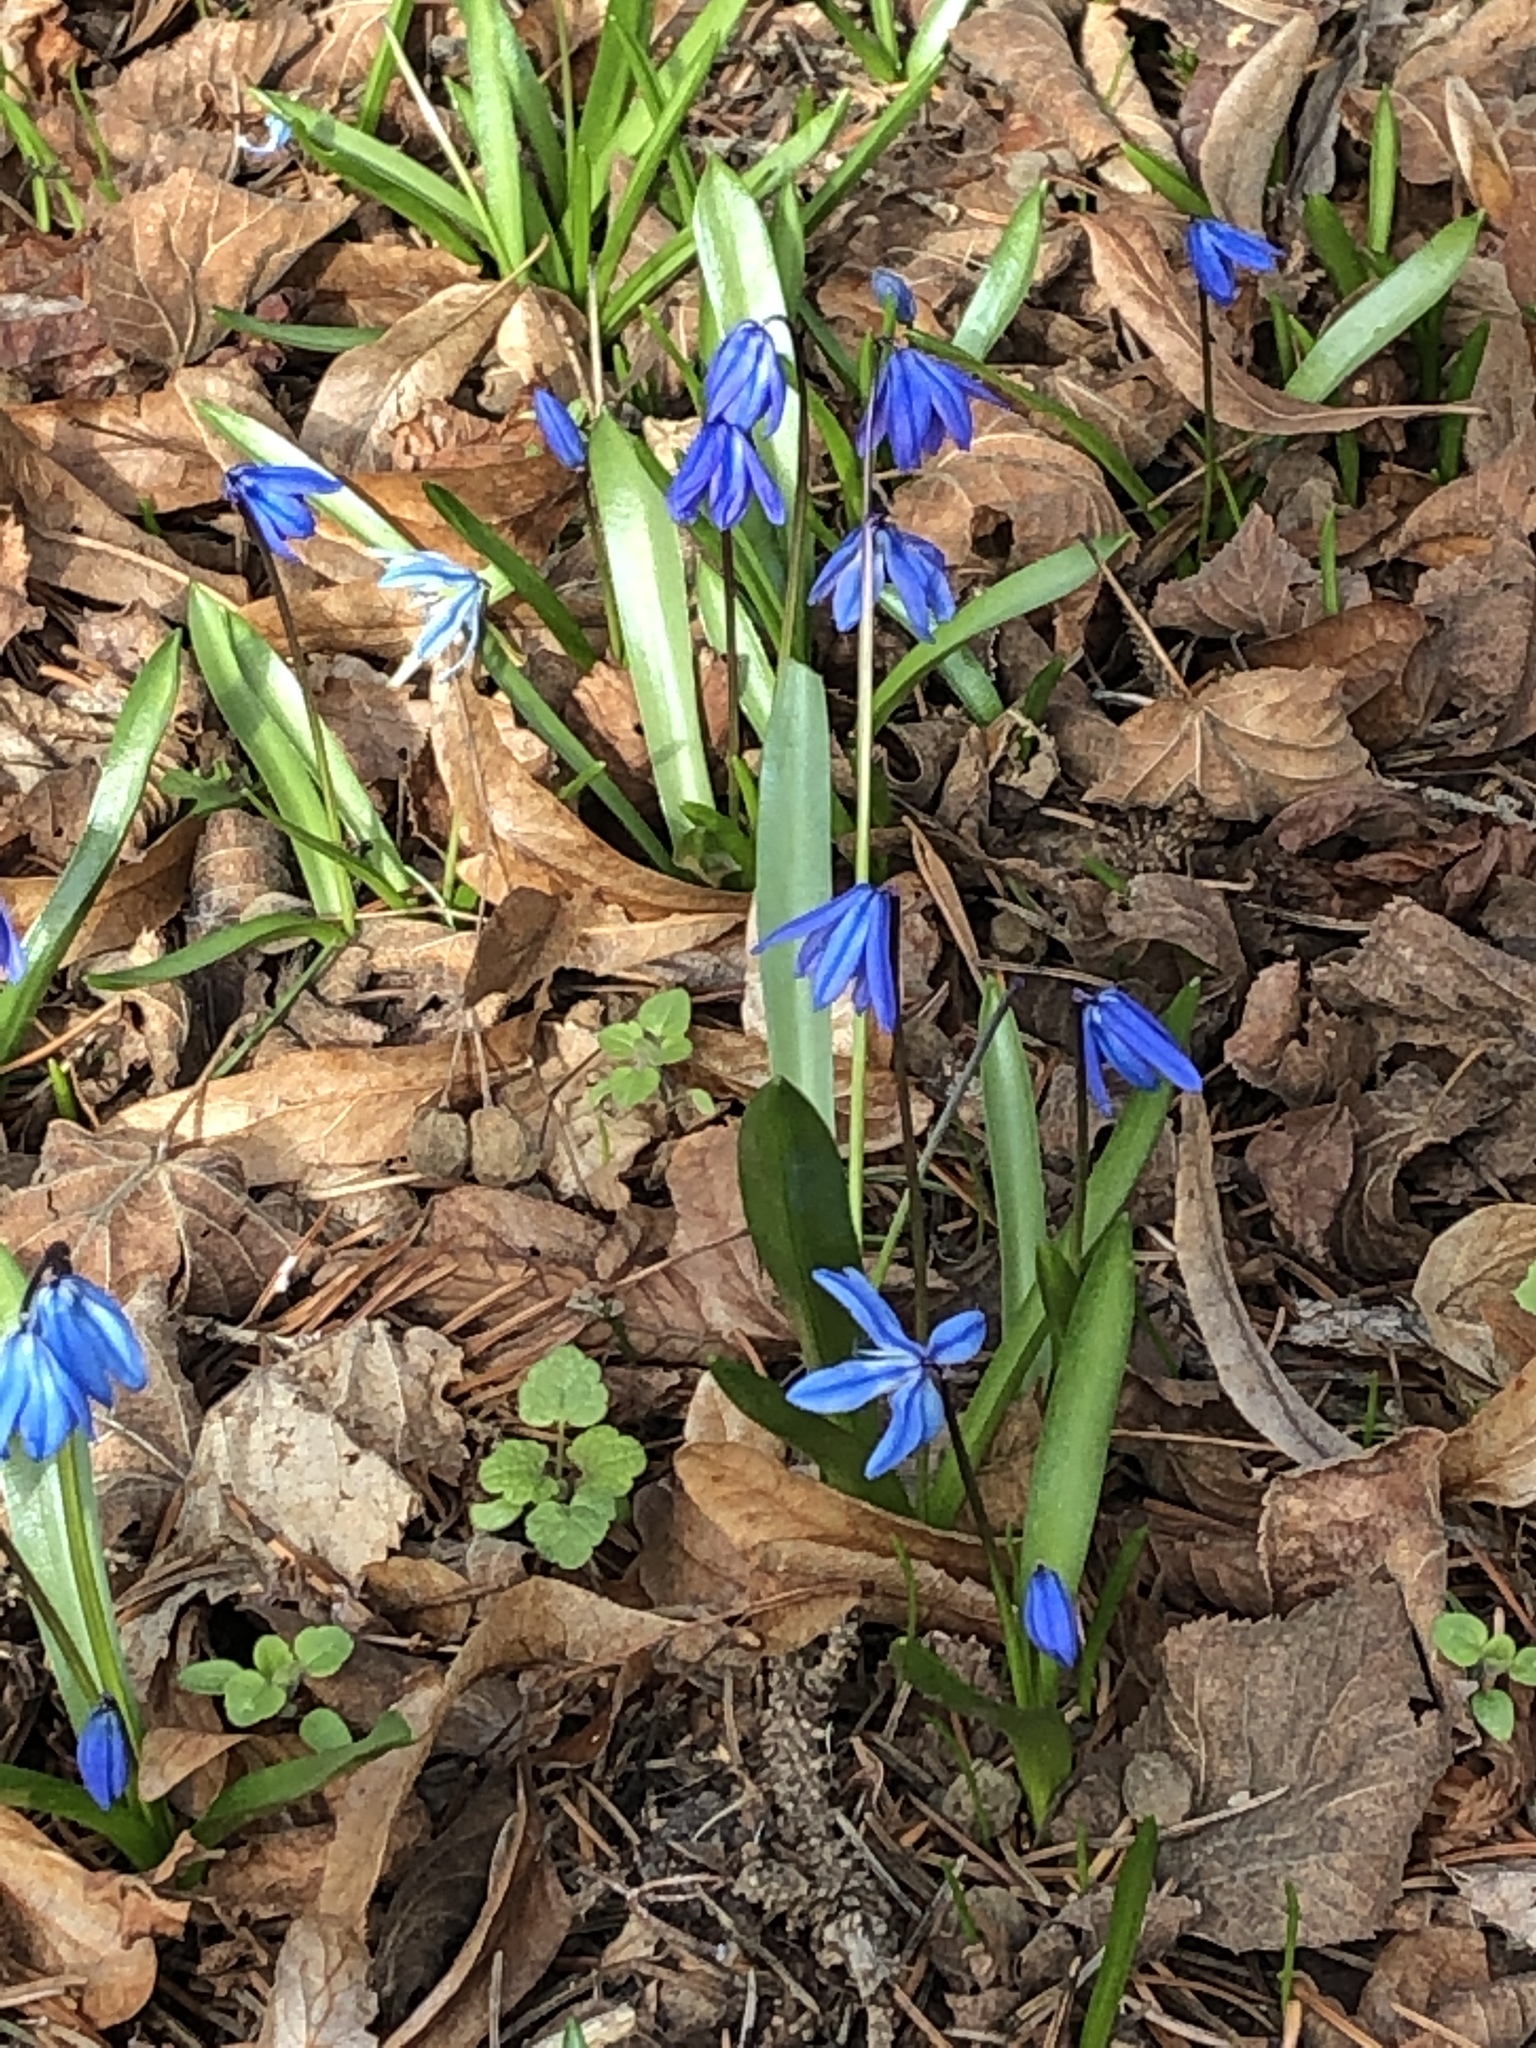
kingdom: Plantae
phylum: Tracheophyta
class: Liliopsida
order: Asparagales
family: Asparagaceae
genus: Scilla
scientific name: Scilla siberica
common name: Siberian squill
